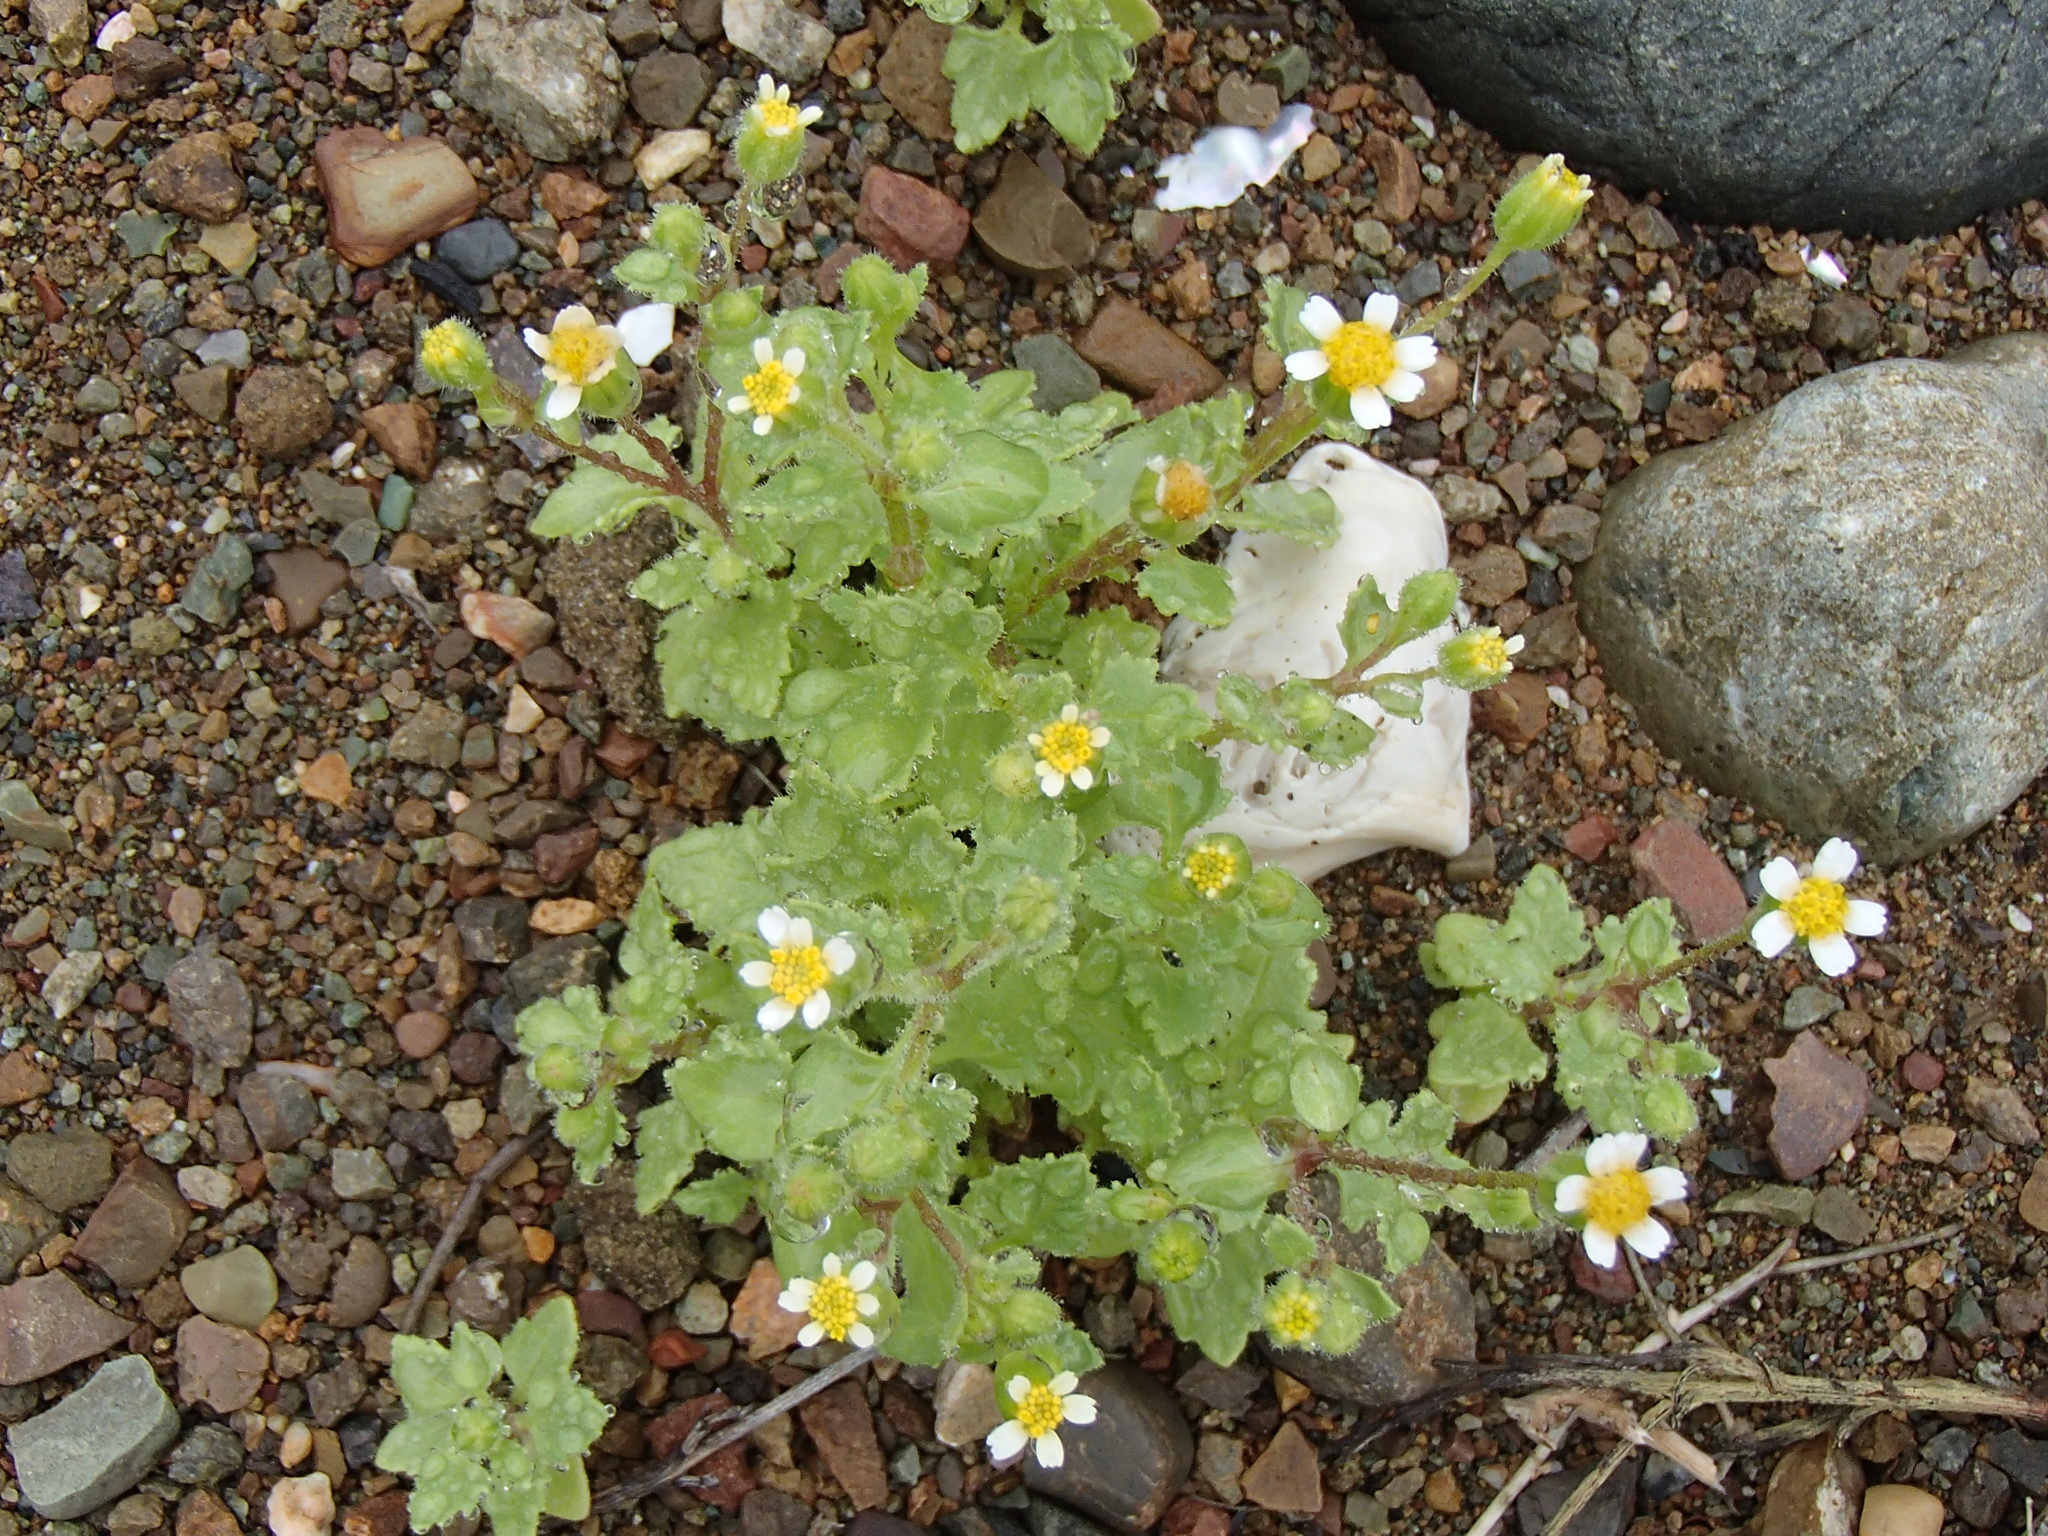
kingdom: Plantae
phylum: Tracheophyta
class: Magnoliopsida
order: Asterales
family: Asteraceae
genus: Laphamia
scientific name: Laphamia emoryi
